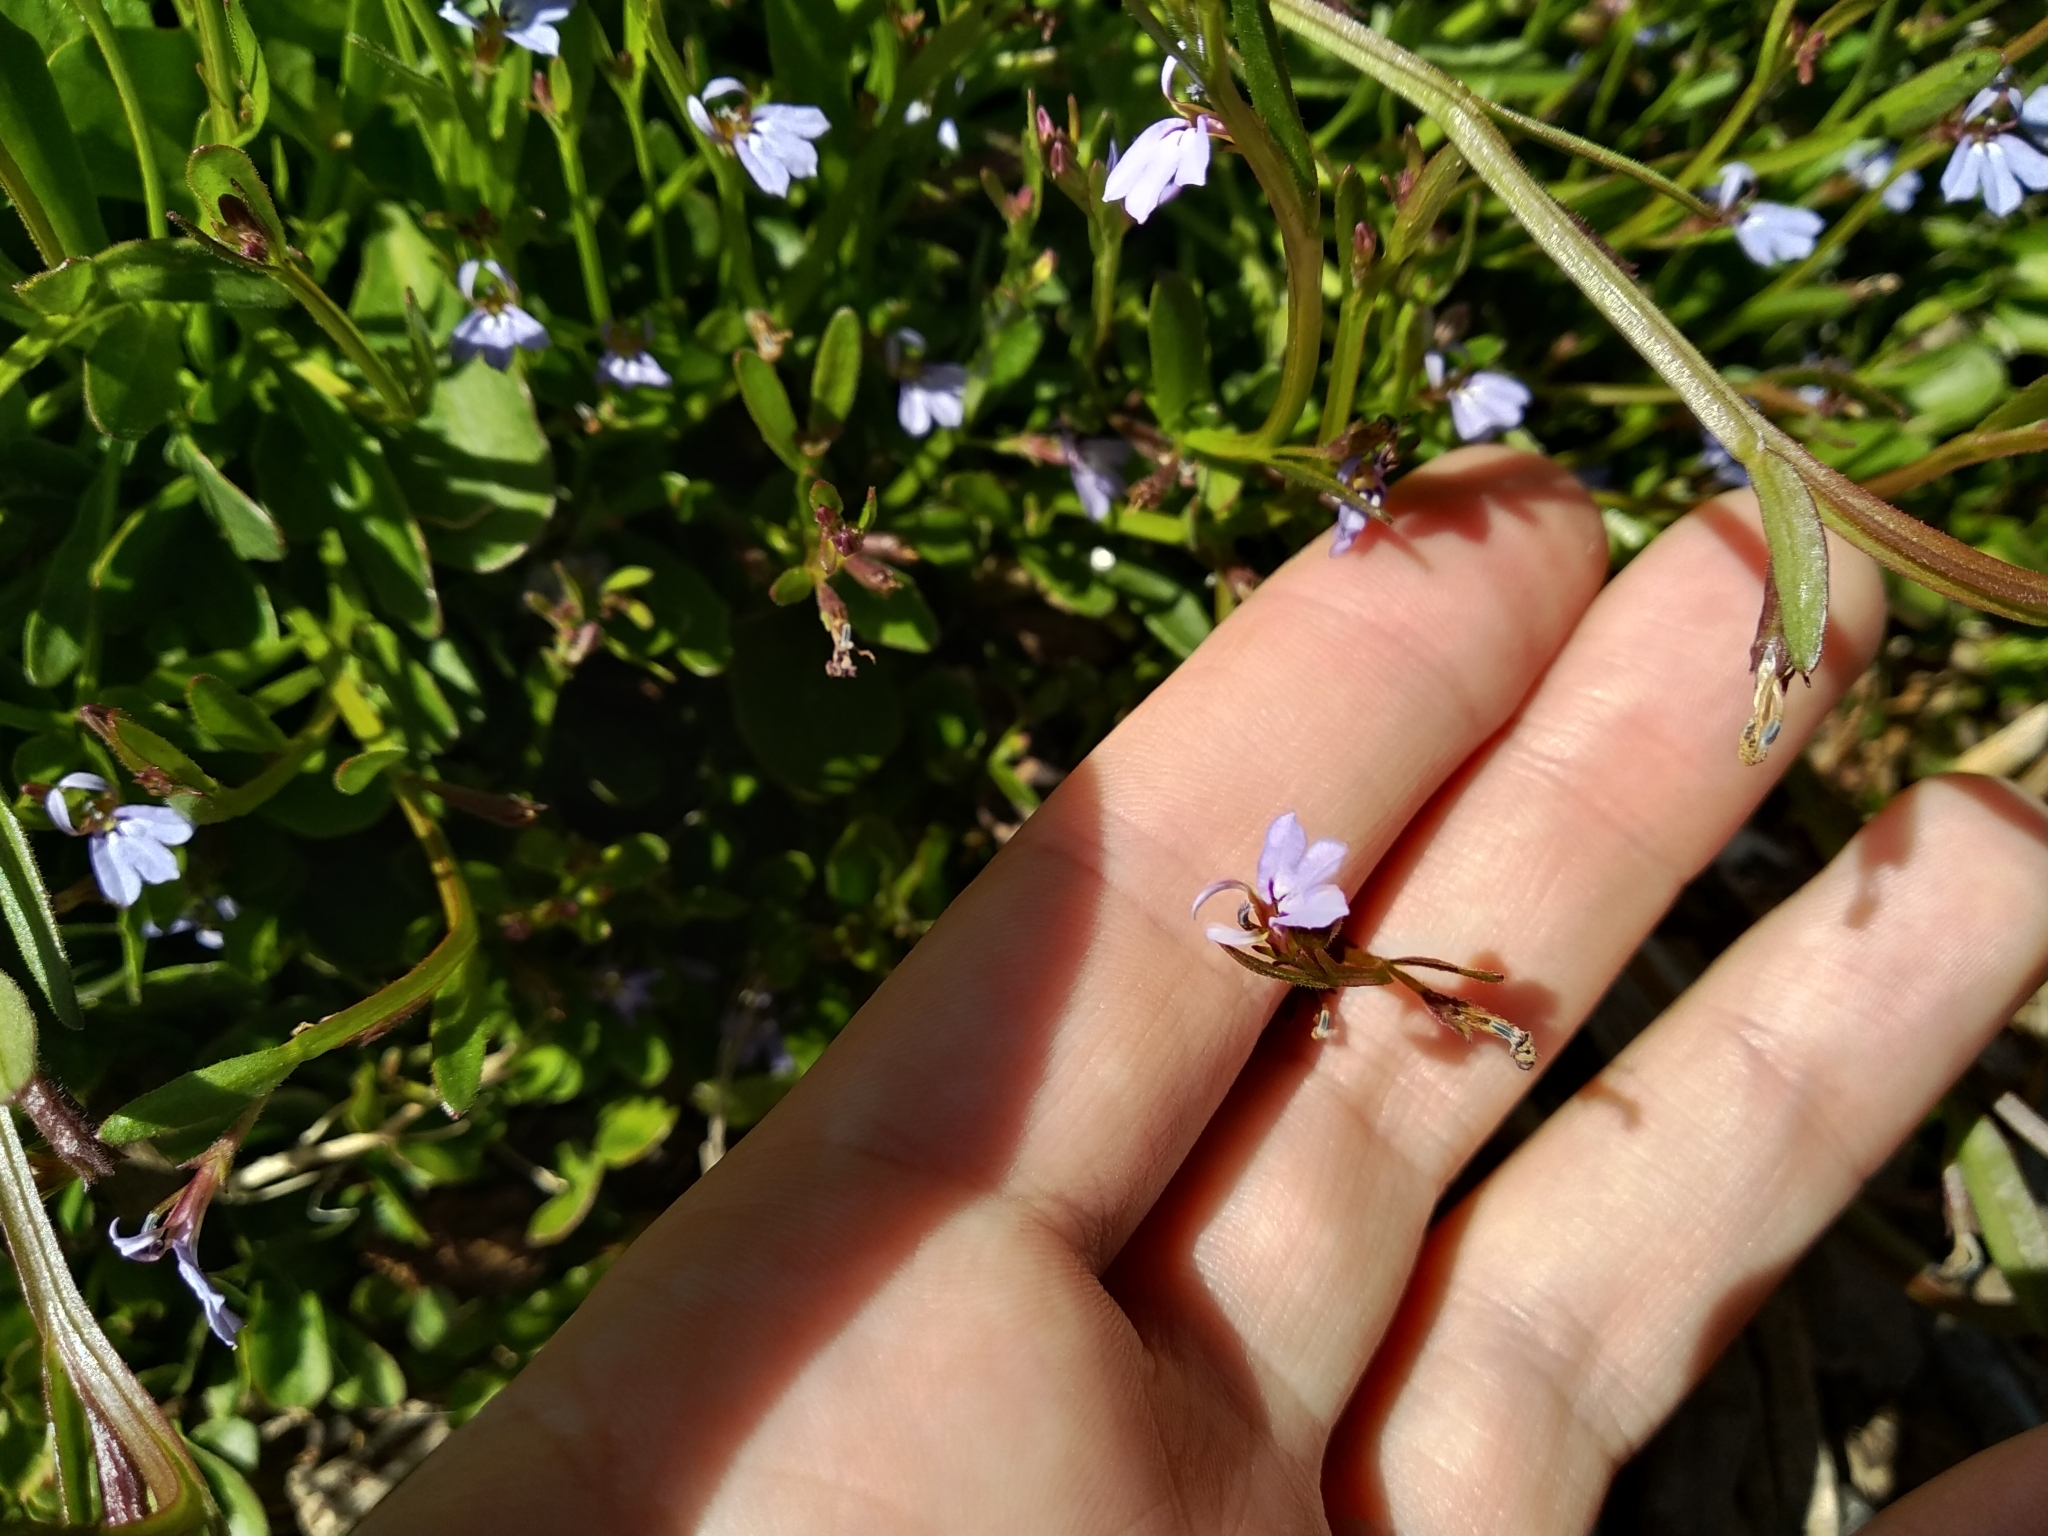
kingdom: Plantae
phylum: Tracheophyta
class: Magnoliopsida
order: Asterales
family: Campanulaceae
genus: Lobelia
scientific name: Lobelia anceps
